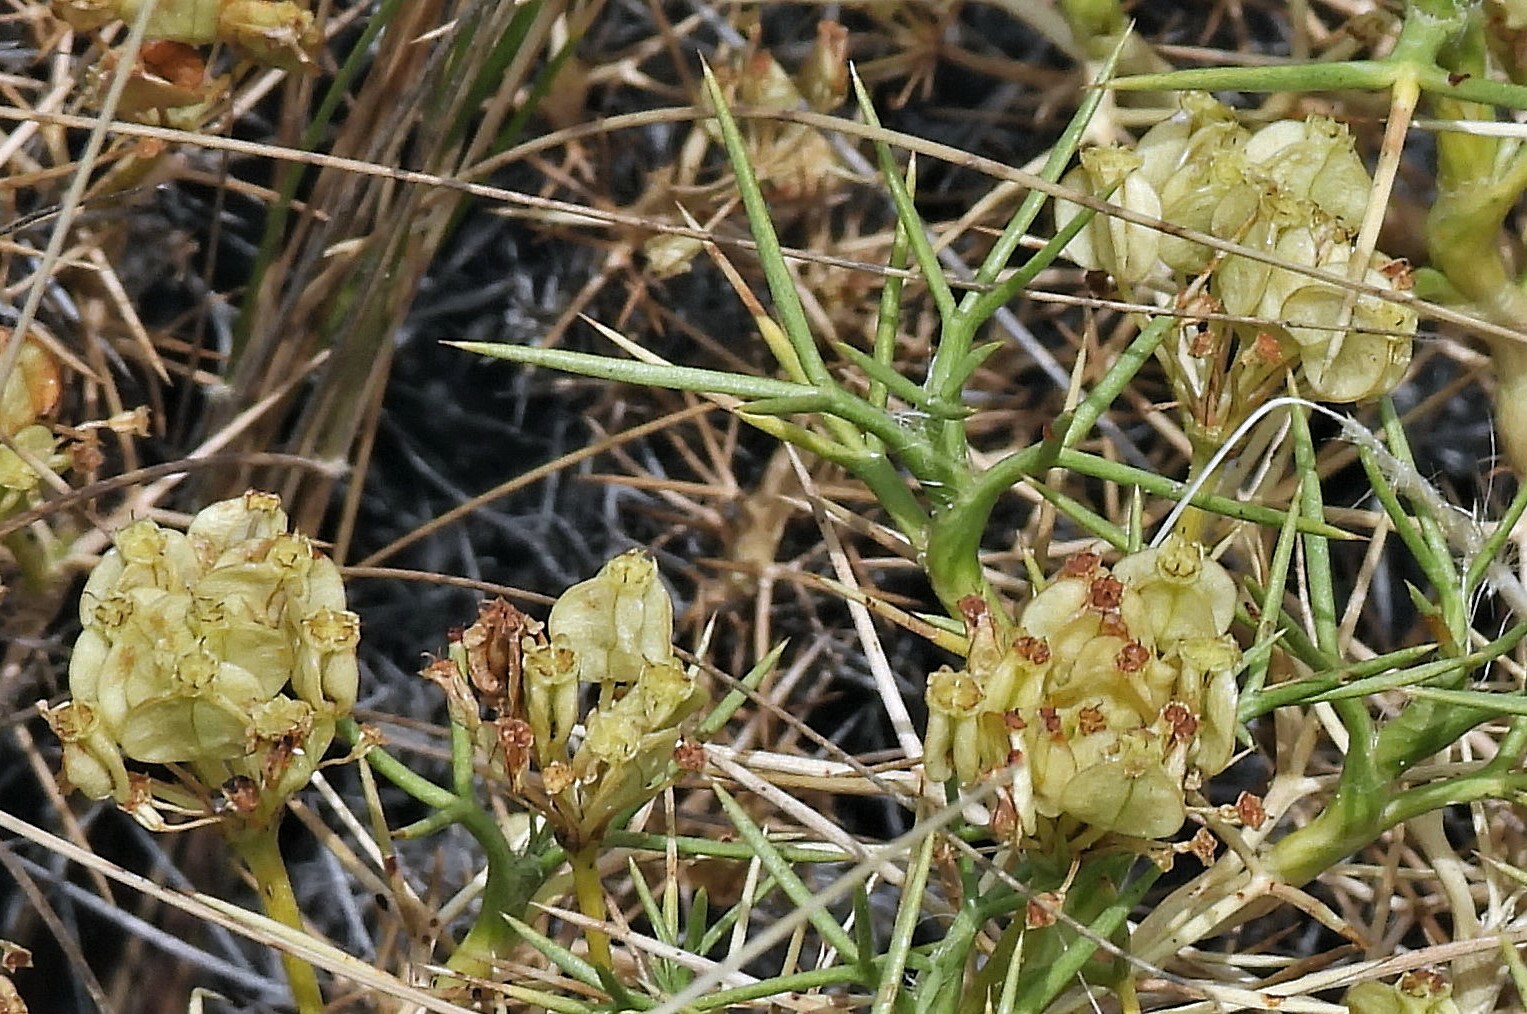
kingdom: Plantae
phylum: Tracheophyta
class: Magnoliopsida
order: Apiales
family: Apiaceae
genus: Azorella
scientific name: Azorella prolifera
